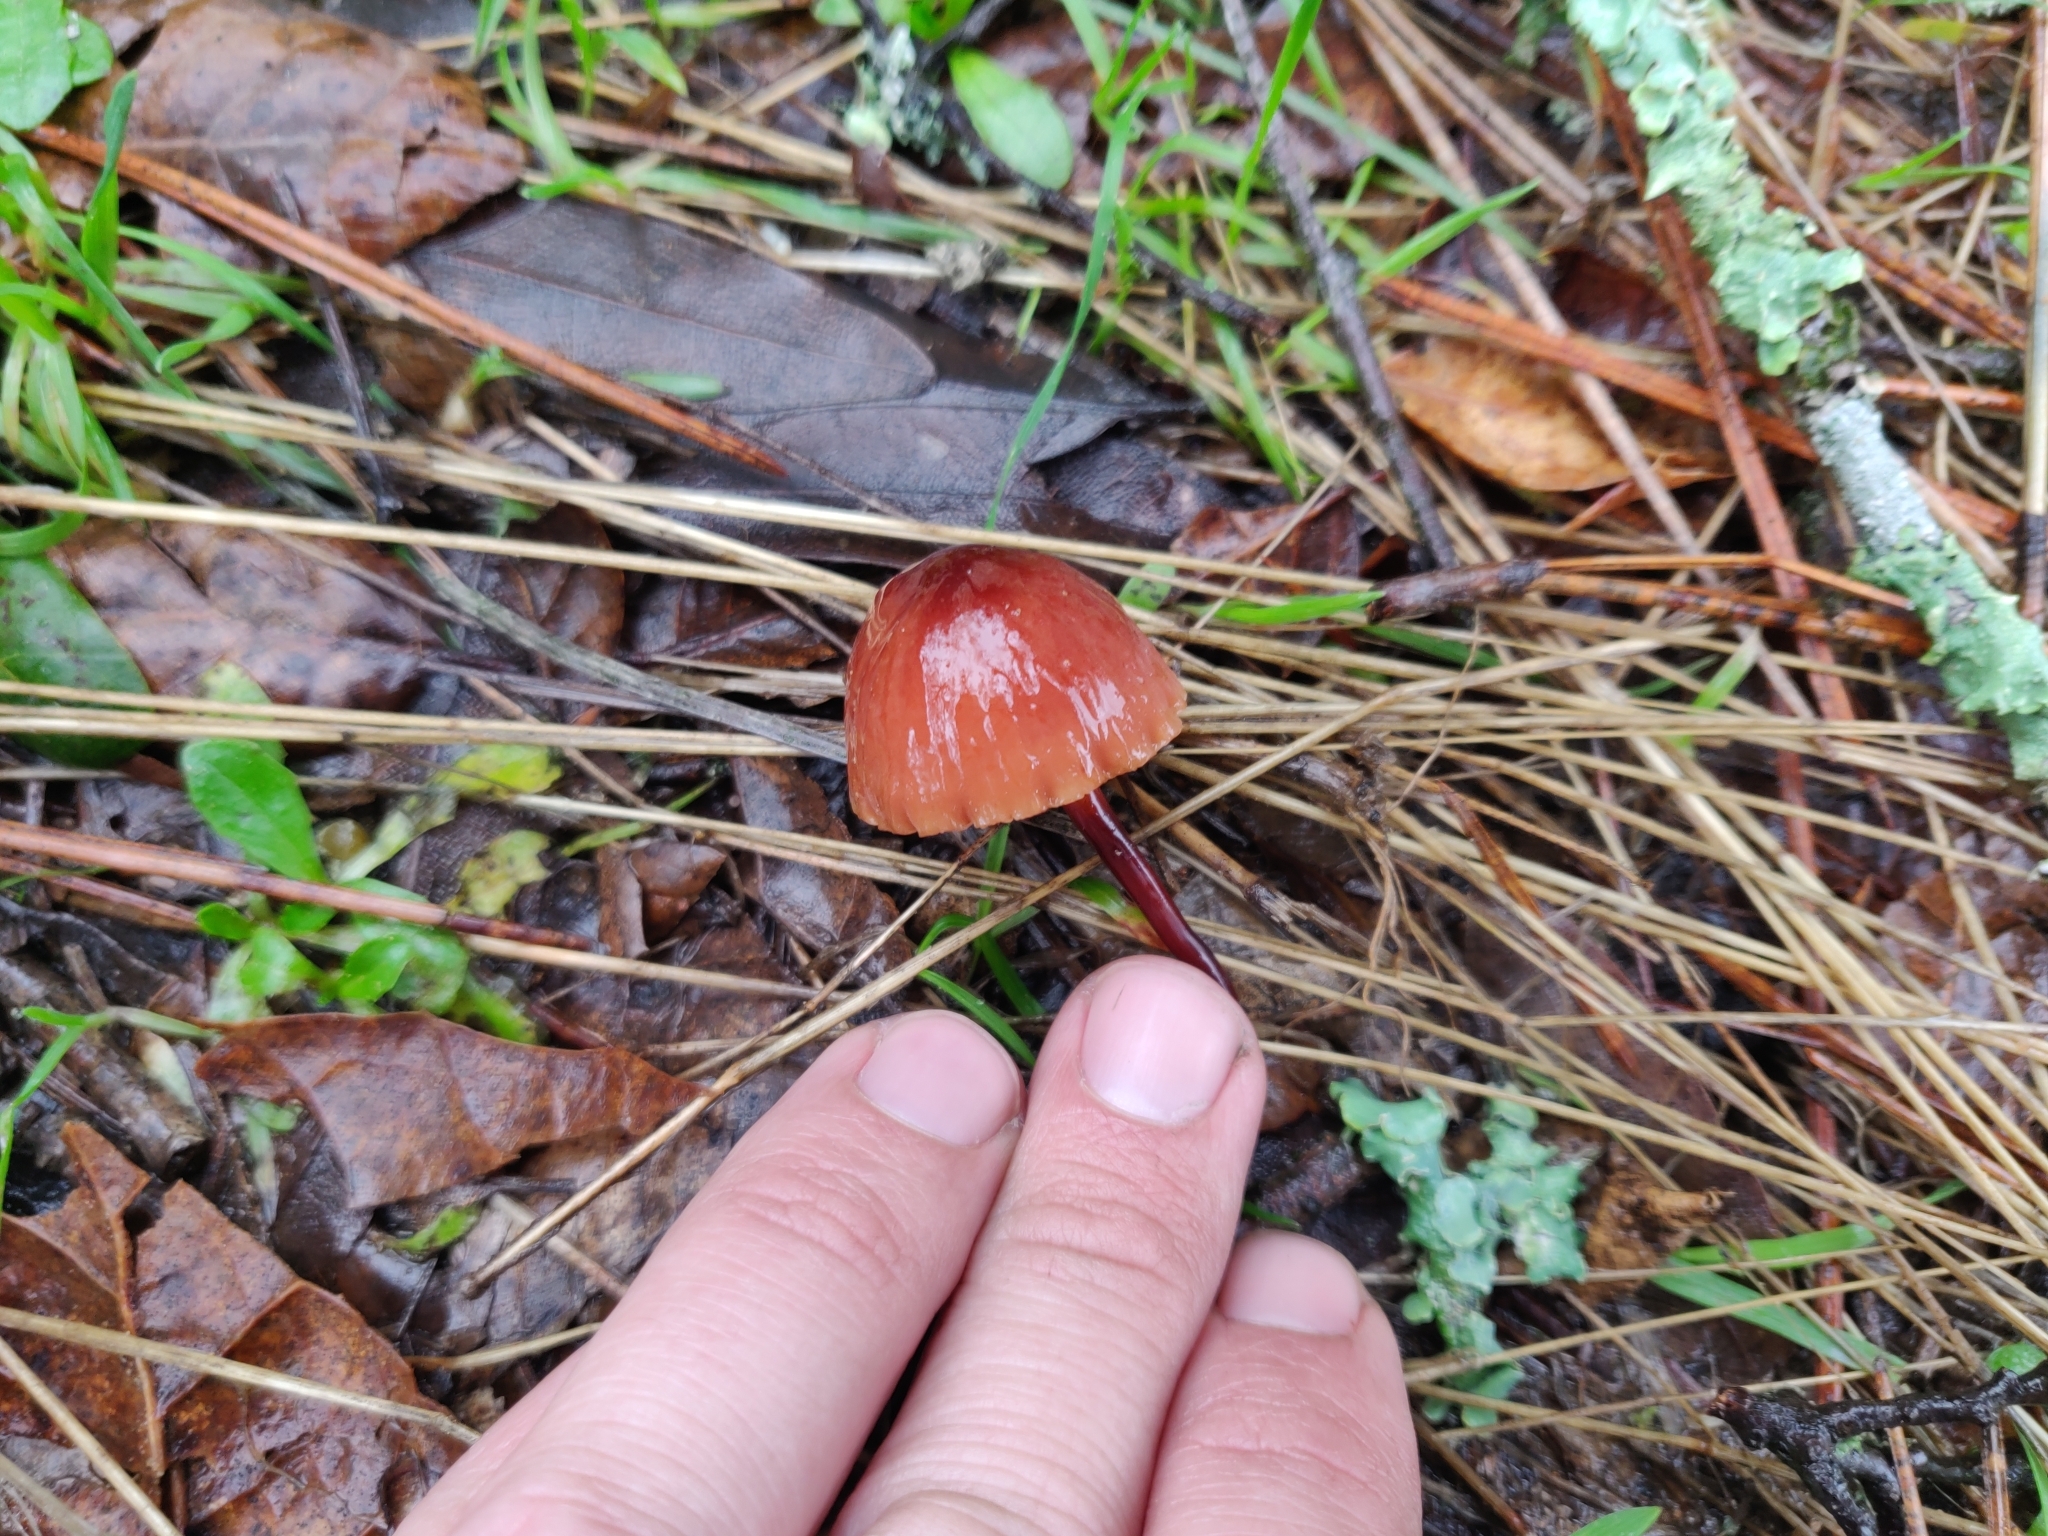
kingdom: Fungi
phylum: Basidiomycota
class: Agaricomycetes
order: Agaricales
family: Marasmiaceae
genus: Marasmius
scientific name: Marasmius plicatulus
